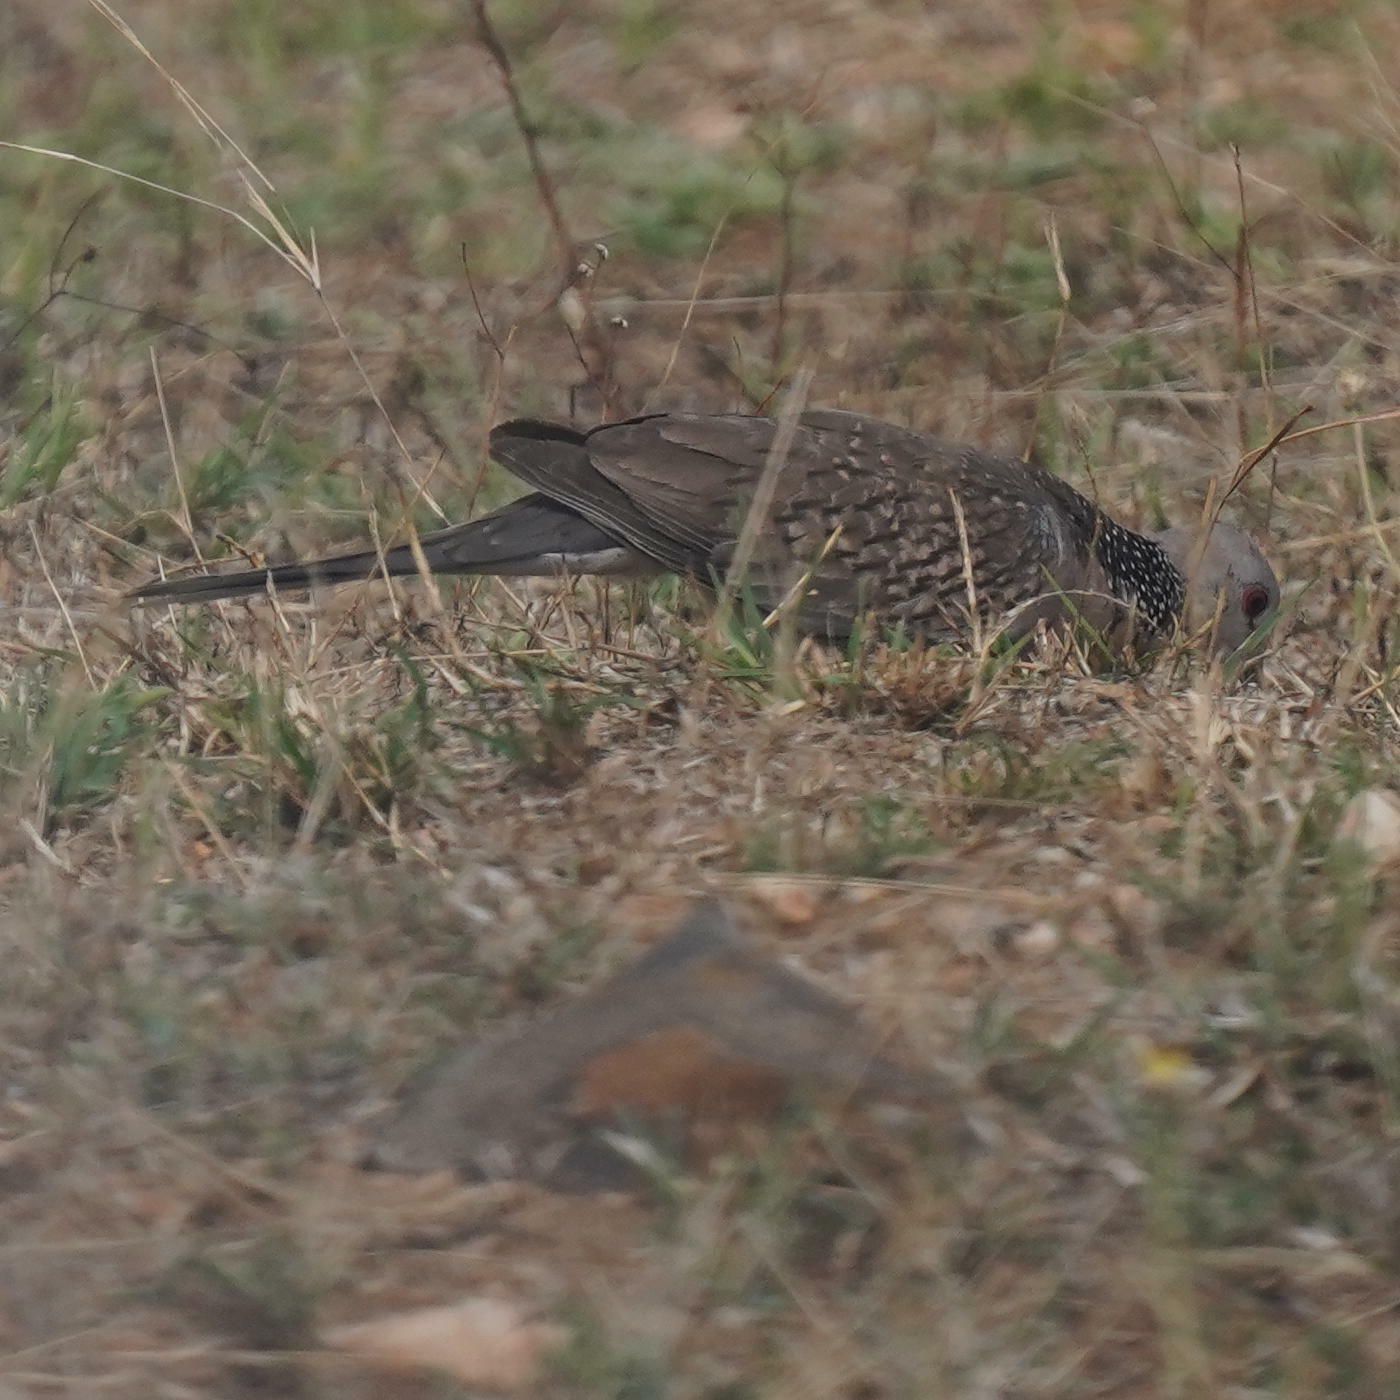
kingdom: Animalia
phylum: Chordata
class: Aves
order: Columbiformes
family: Columbidae
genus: Spilopelia
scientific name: Spilopelia chinensis
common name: Spotted dove
